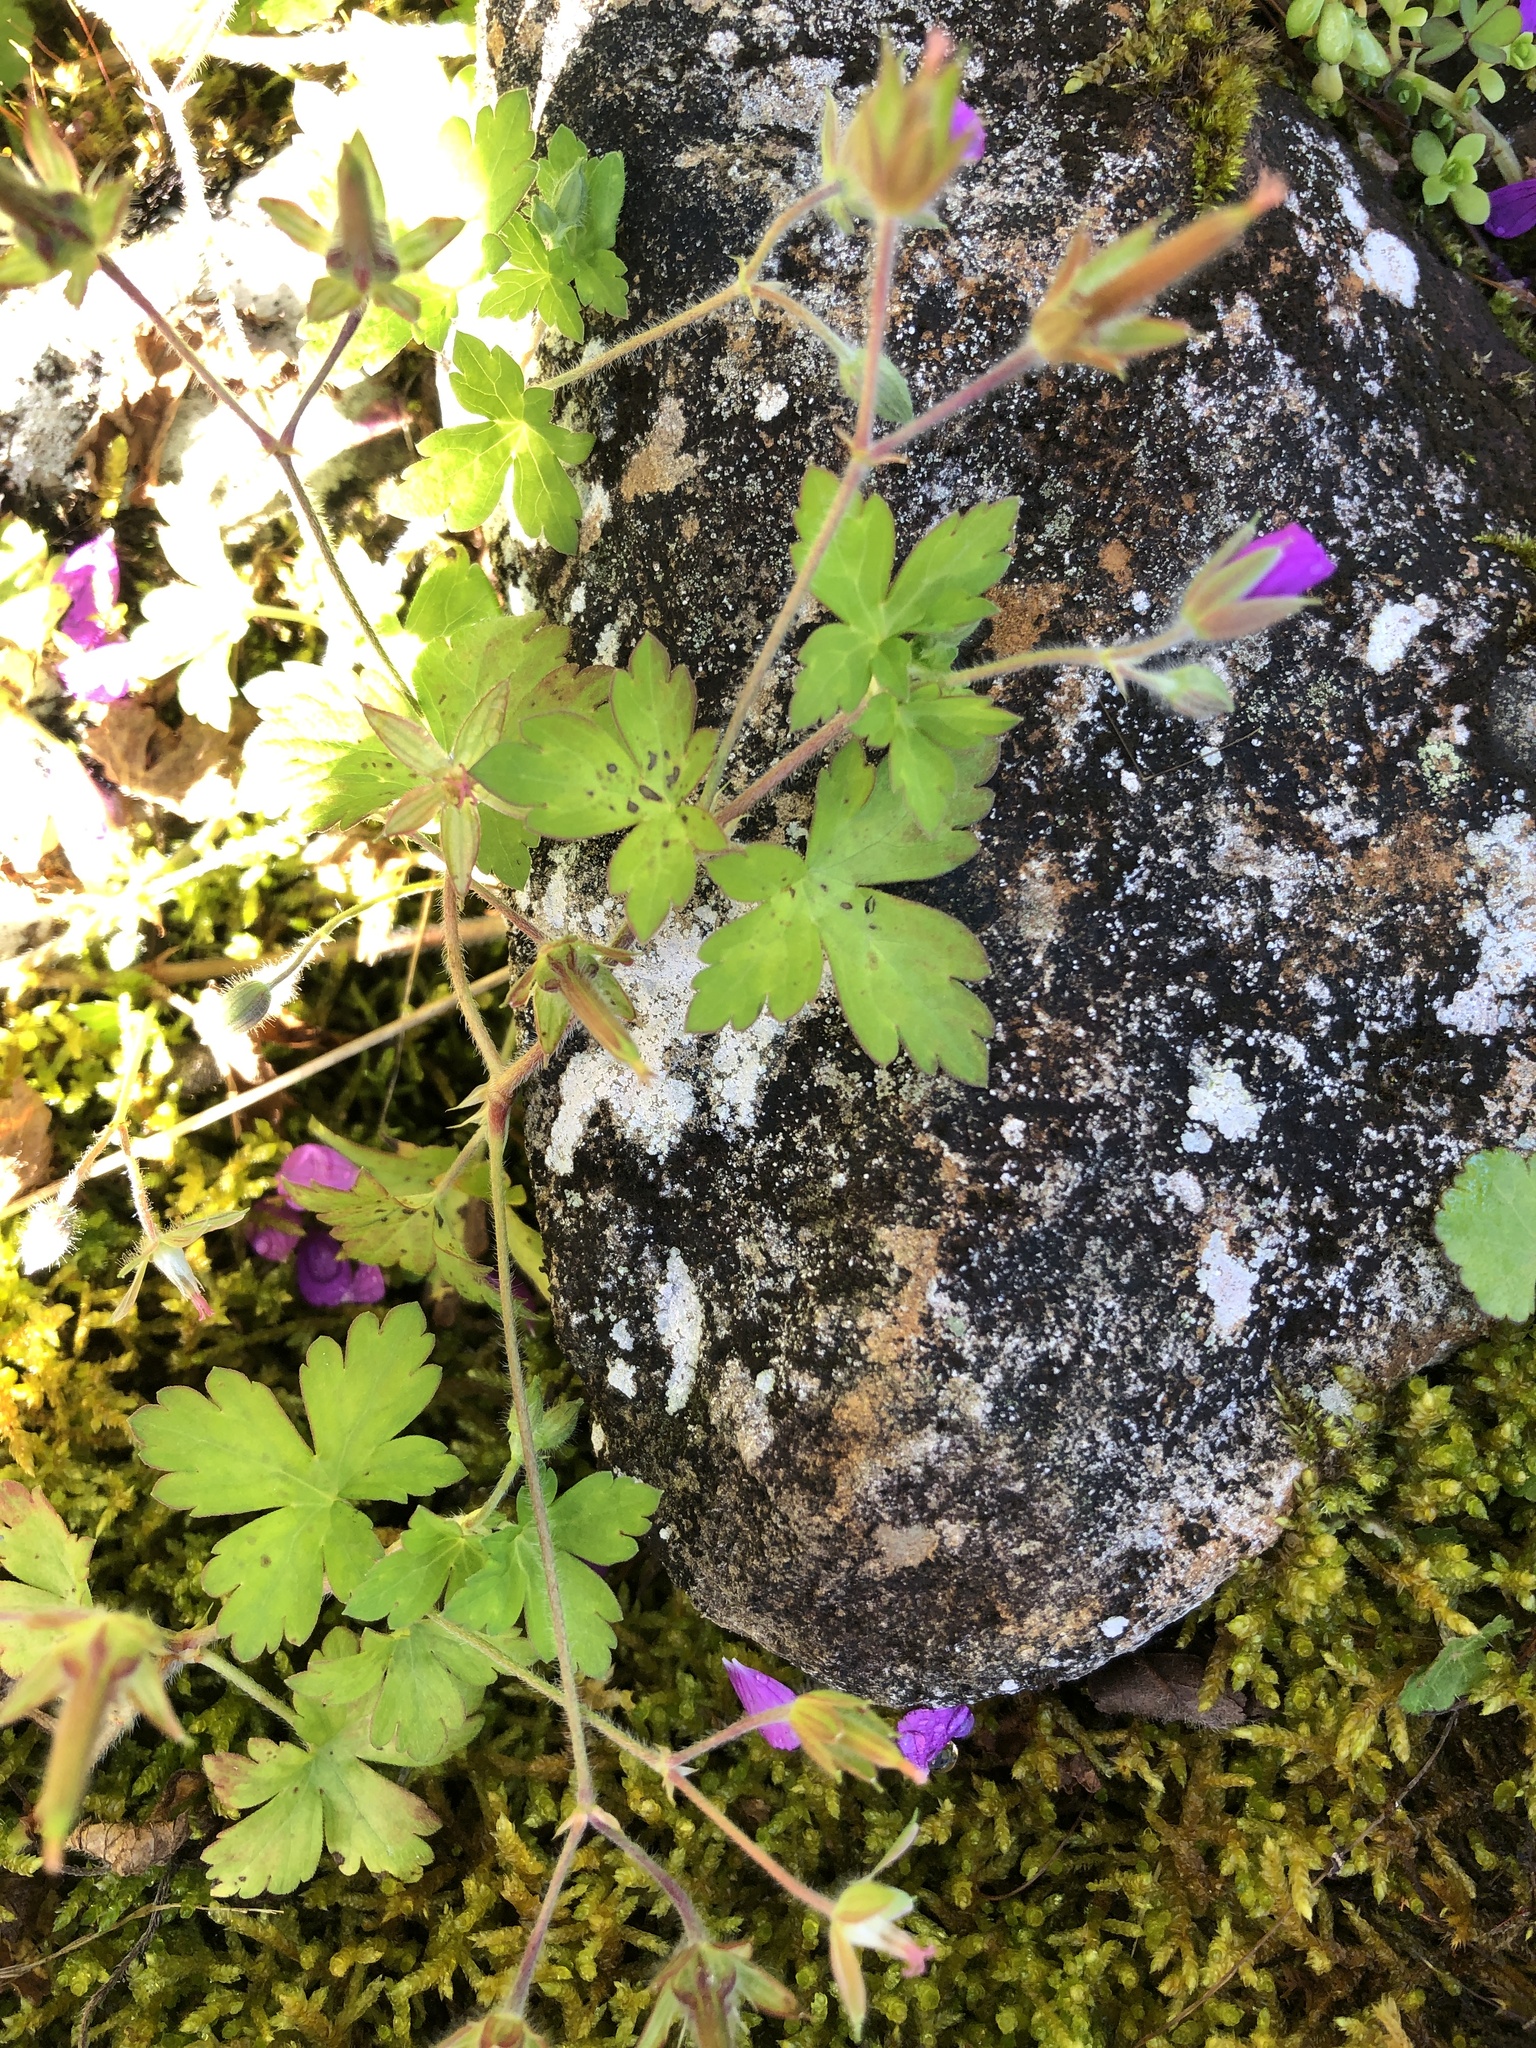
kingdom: Plantae
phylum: Tracheophyta
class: Magnoliopsida
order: Geraniales
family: Geraniaceae
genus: Geranium
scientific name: Geranium thunbergii
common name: Dewdrop crane's-bill
